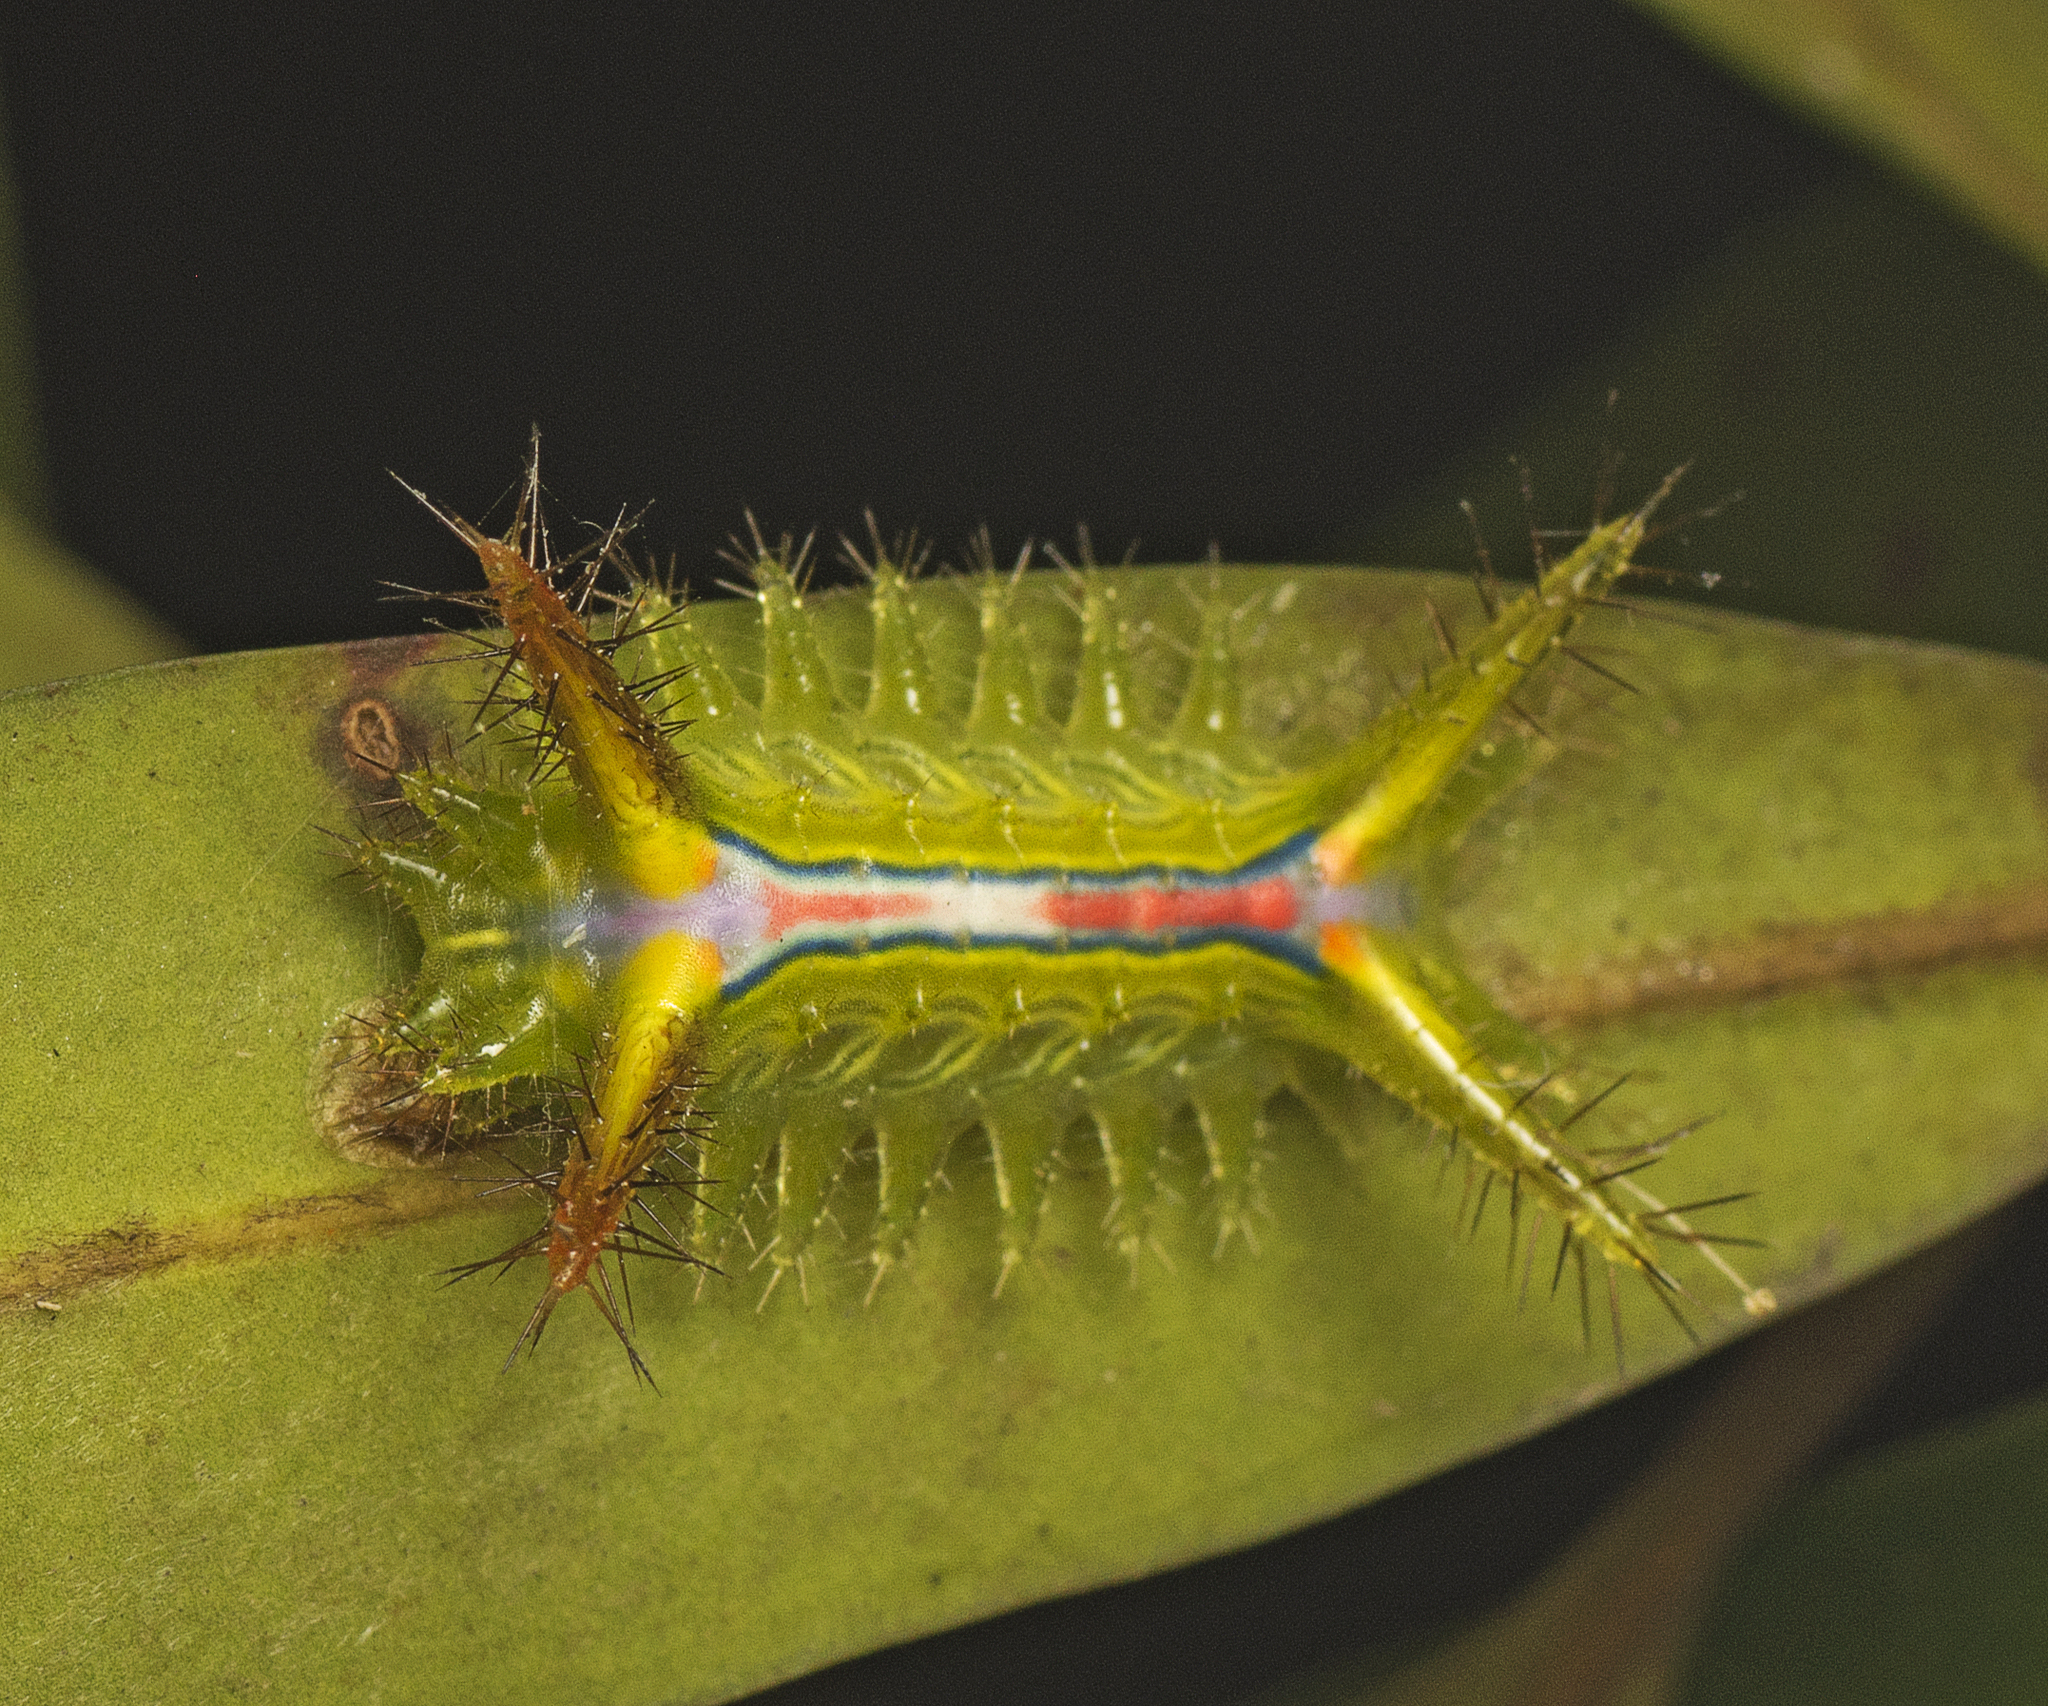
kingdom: Animalia
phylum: Arthropoda
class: Insecta
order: Lepidoptera
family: Limacodidae
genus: Anaxidia
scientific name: Anaxidia lozogramma
